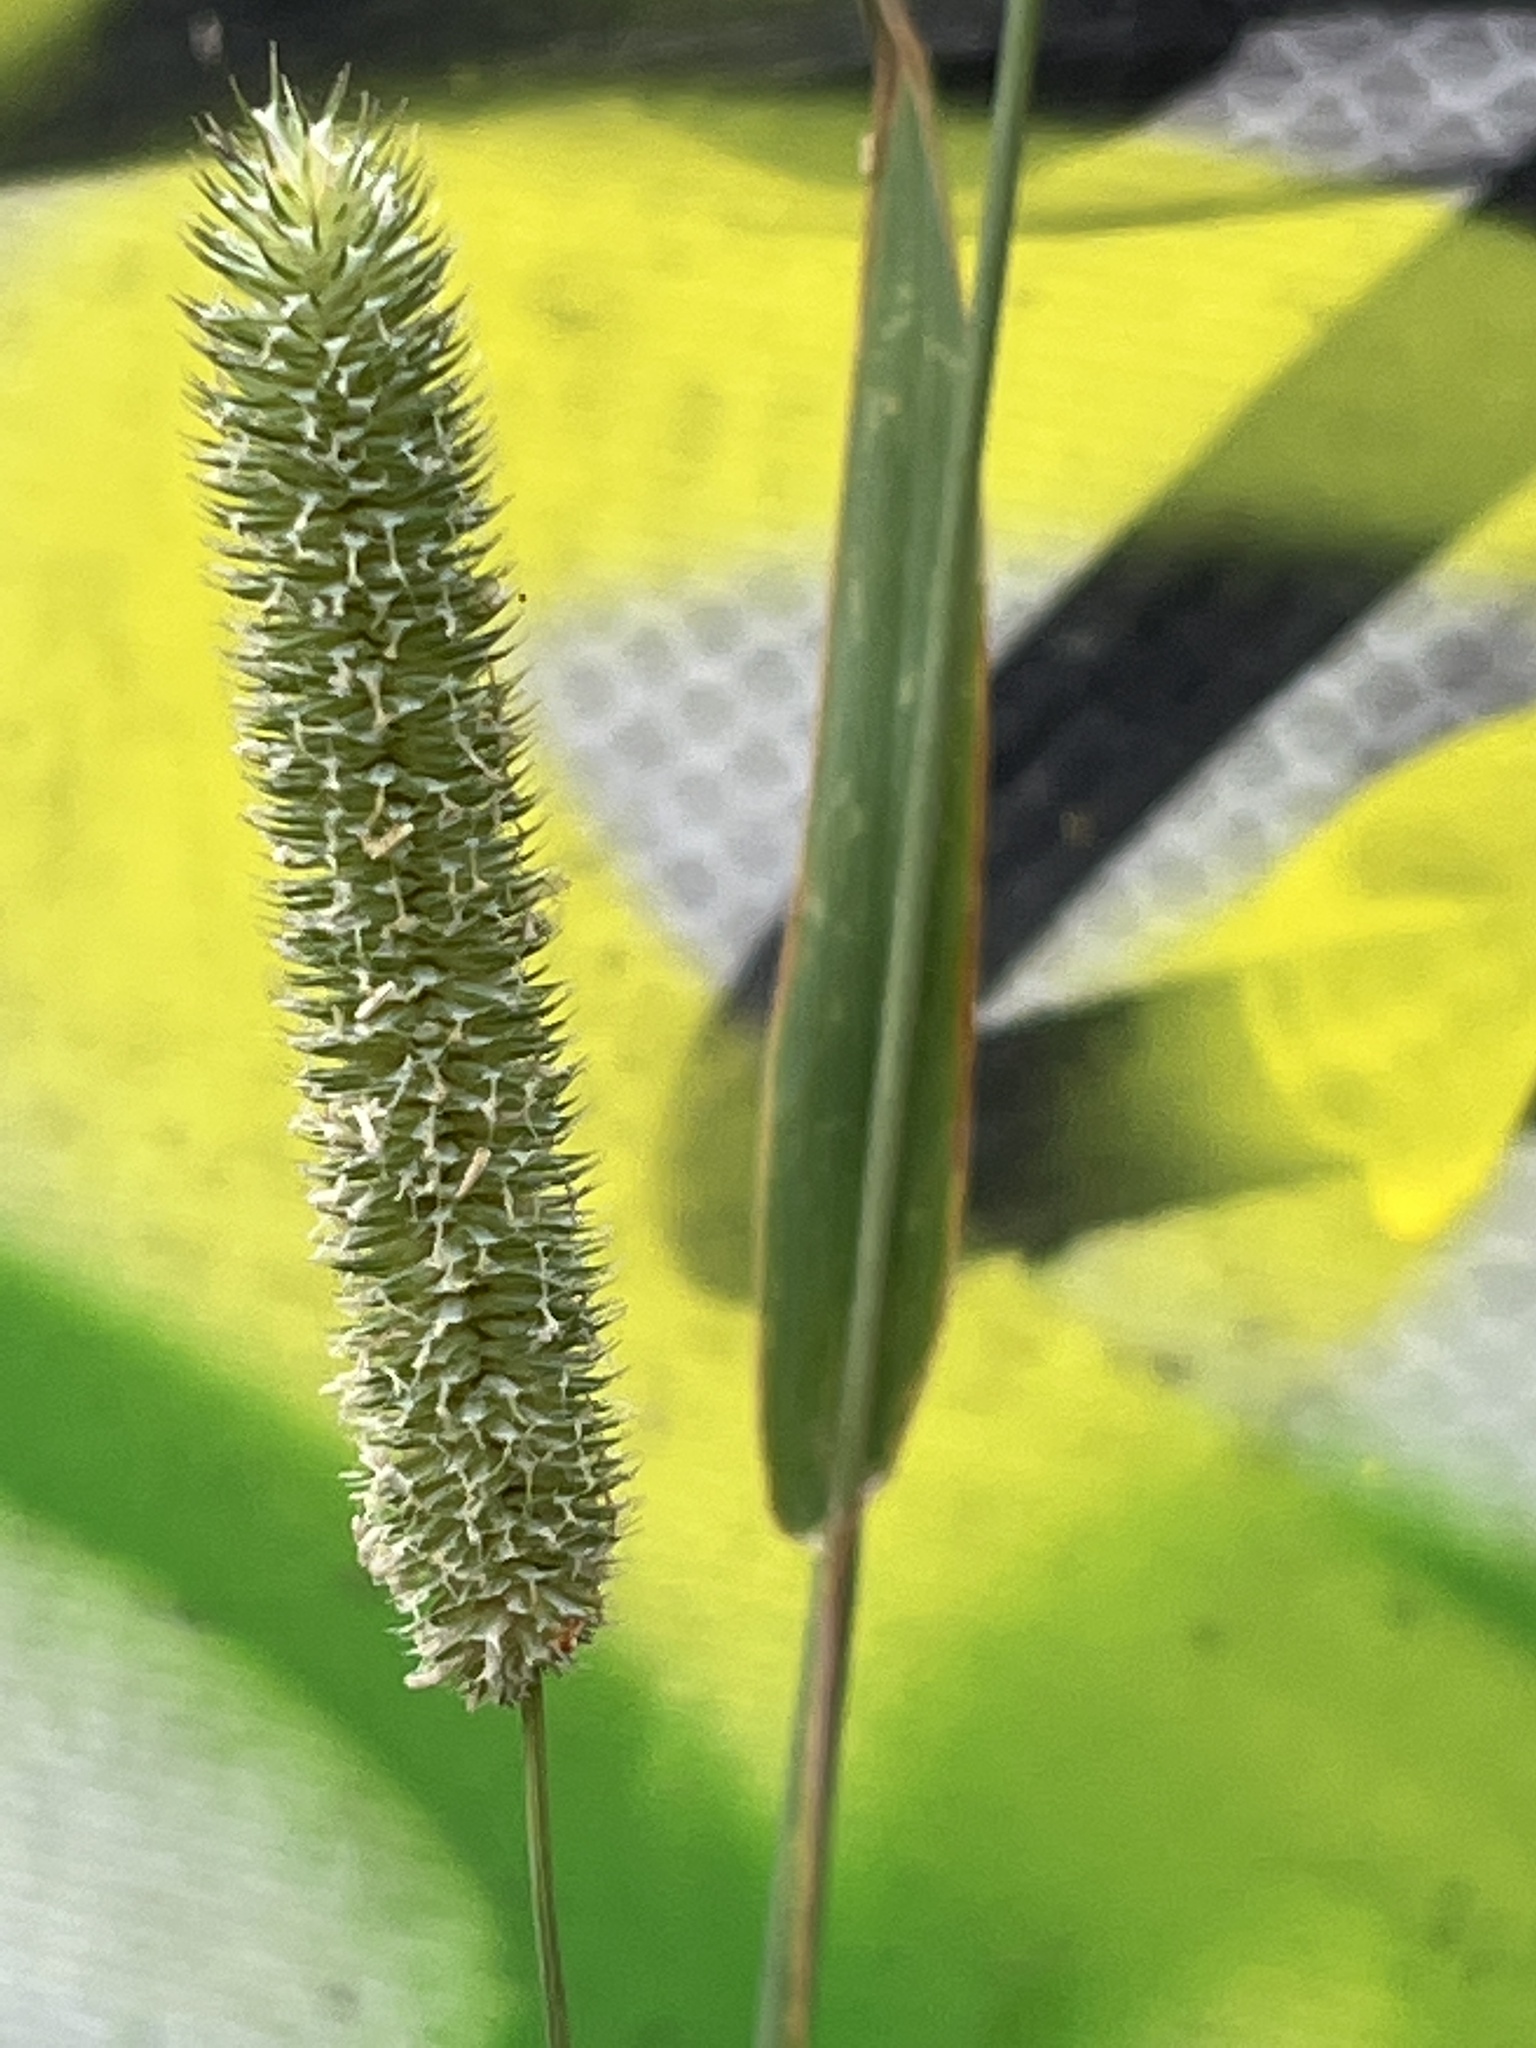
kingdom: Plantae
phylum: Tracheophyta
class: Liliopsida
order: Poales
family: Poaceae
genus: Phleum
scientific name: Phleum pratense
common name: Timothy grass
